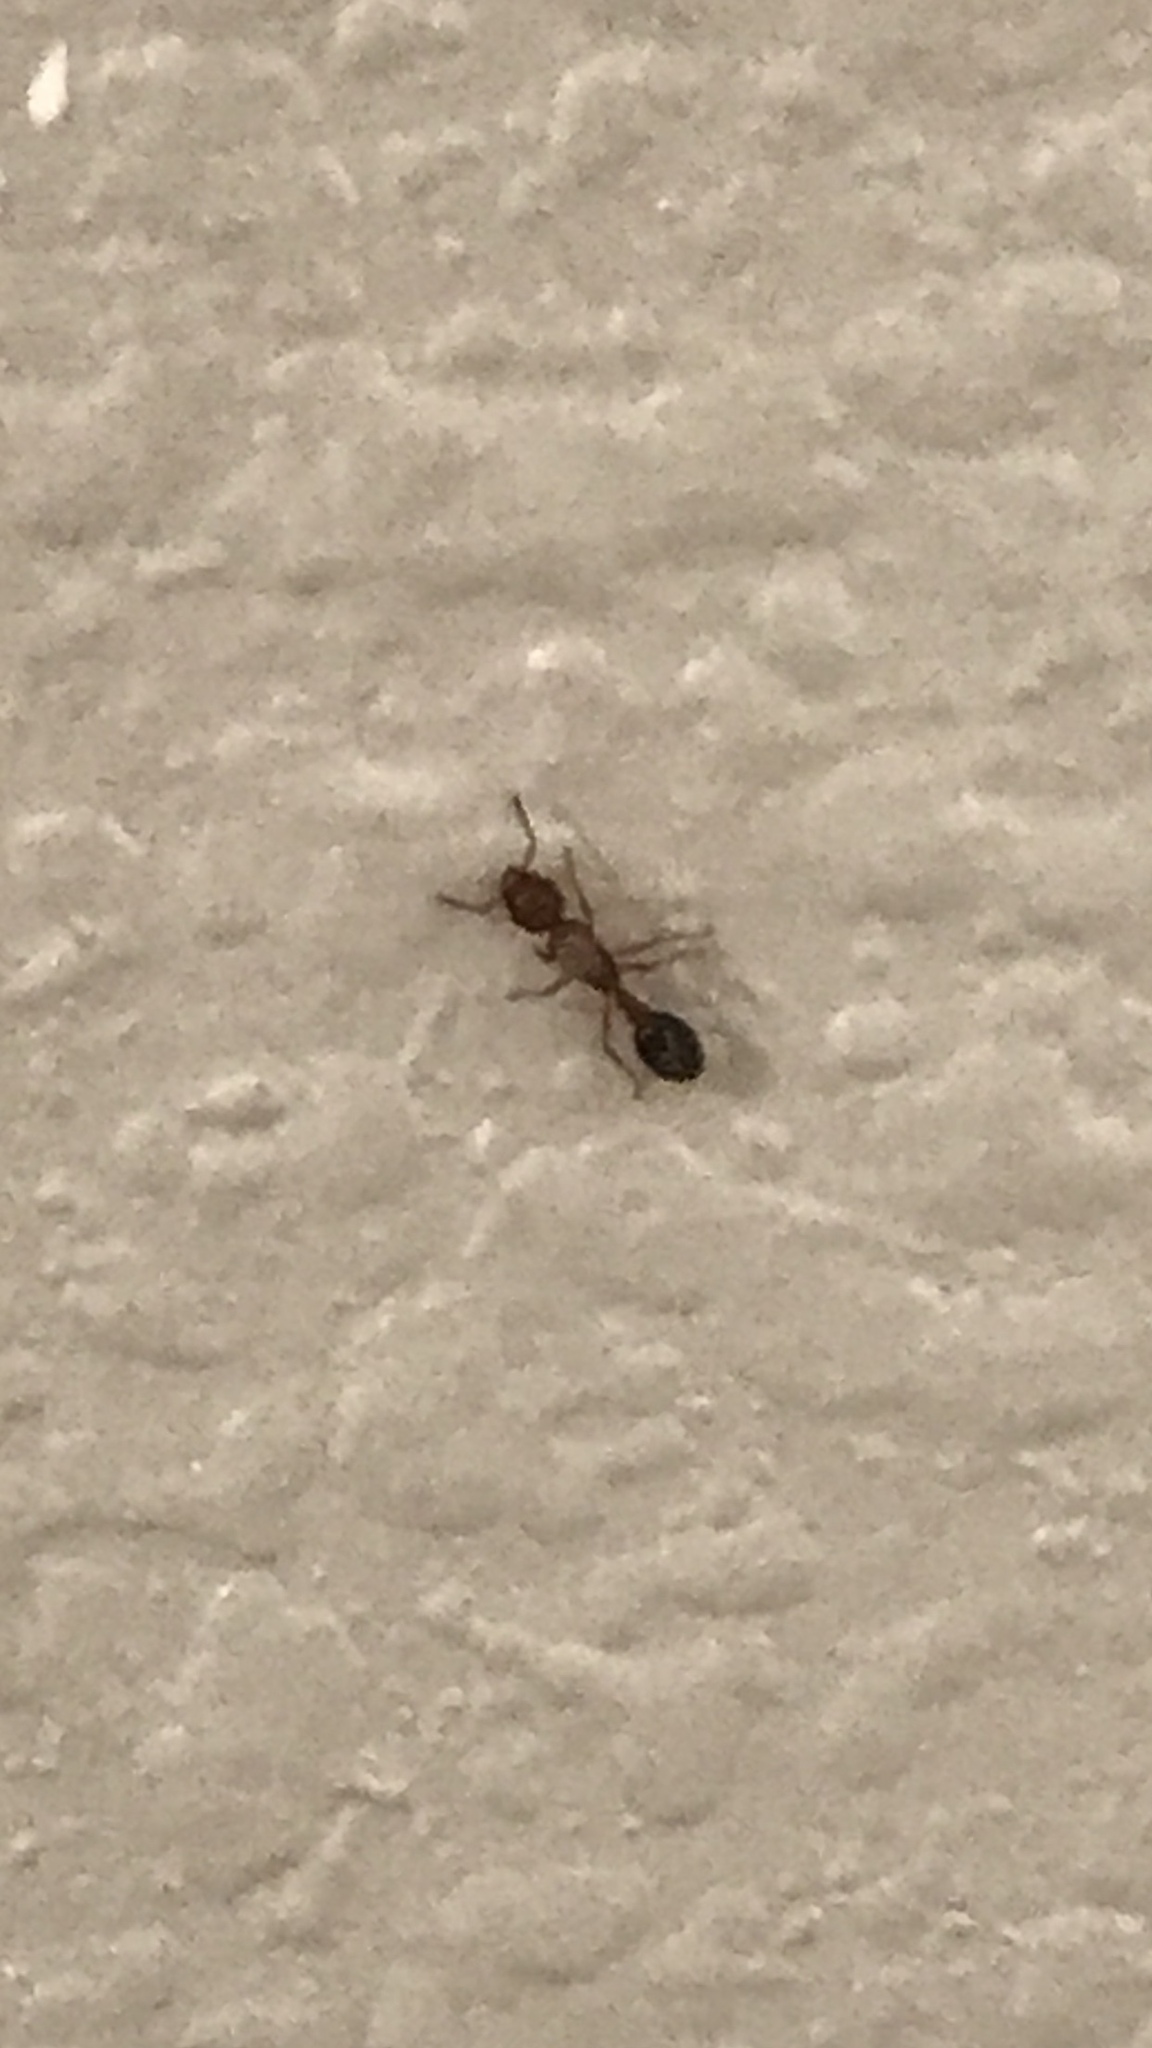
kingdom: Animalia
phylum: Arthropoda
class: Insecta
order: Hymenoptera
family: Formicidae
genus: Tetramorium
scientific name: Tetramorium bicarinatum
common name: Guinea ant
